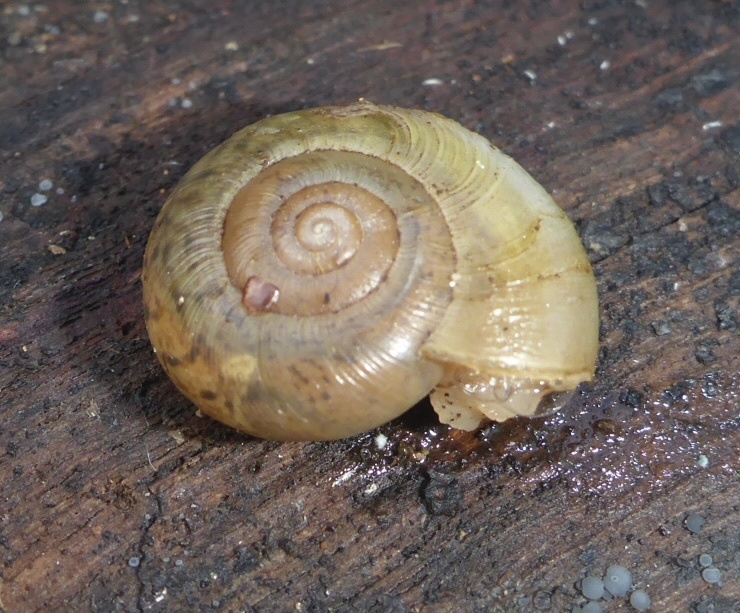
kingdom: Animalia
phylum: Mollusca
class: Gastropoda
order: Stylommatophora
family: Haplotrematidae
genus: Haplotrema
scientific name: Haplotrema minimum
